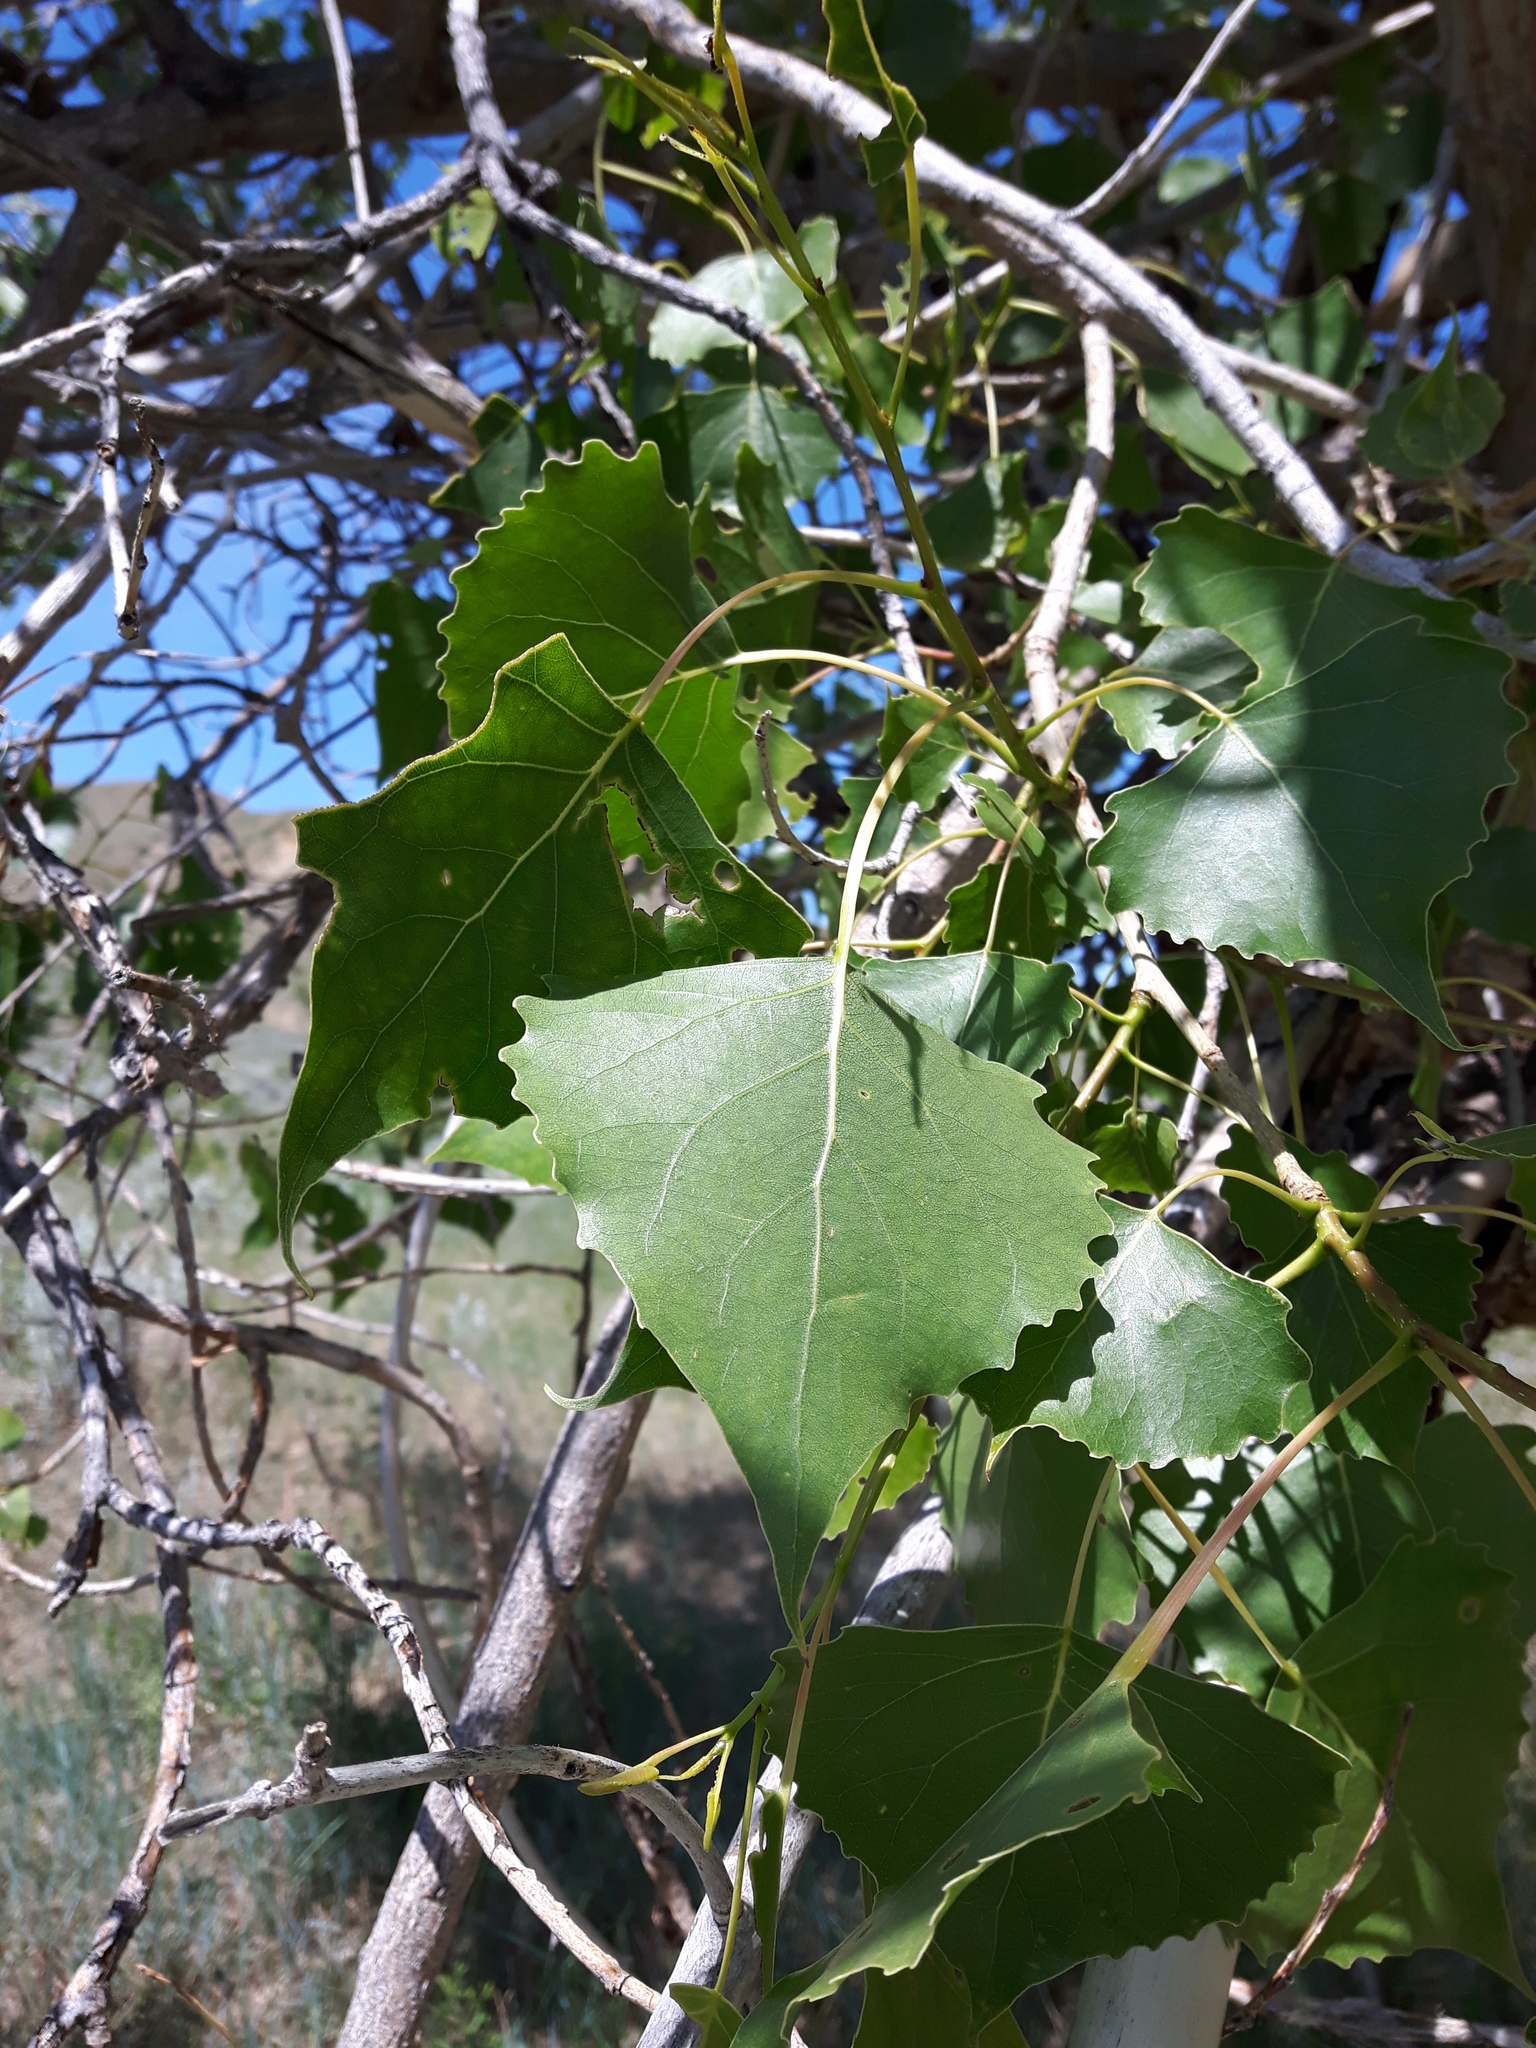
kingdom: Plantae
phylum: Tracheophyta
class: Magnoliopsida
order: Malpighiales
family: Salicaceae
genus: Populus
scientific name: Populus deltoides
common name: Eastern cottonwood
